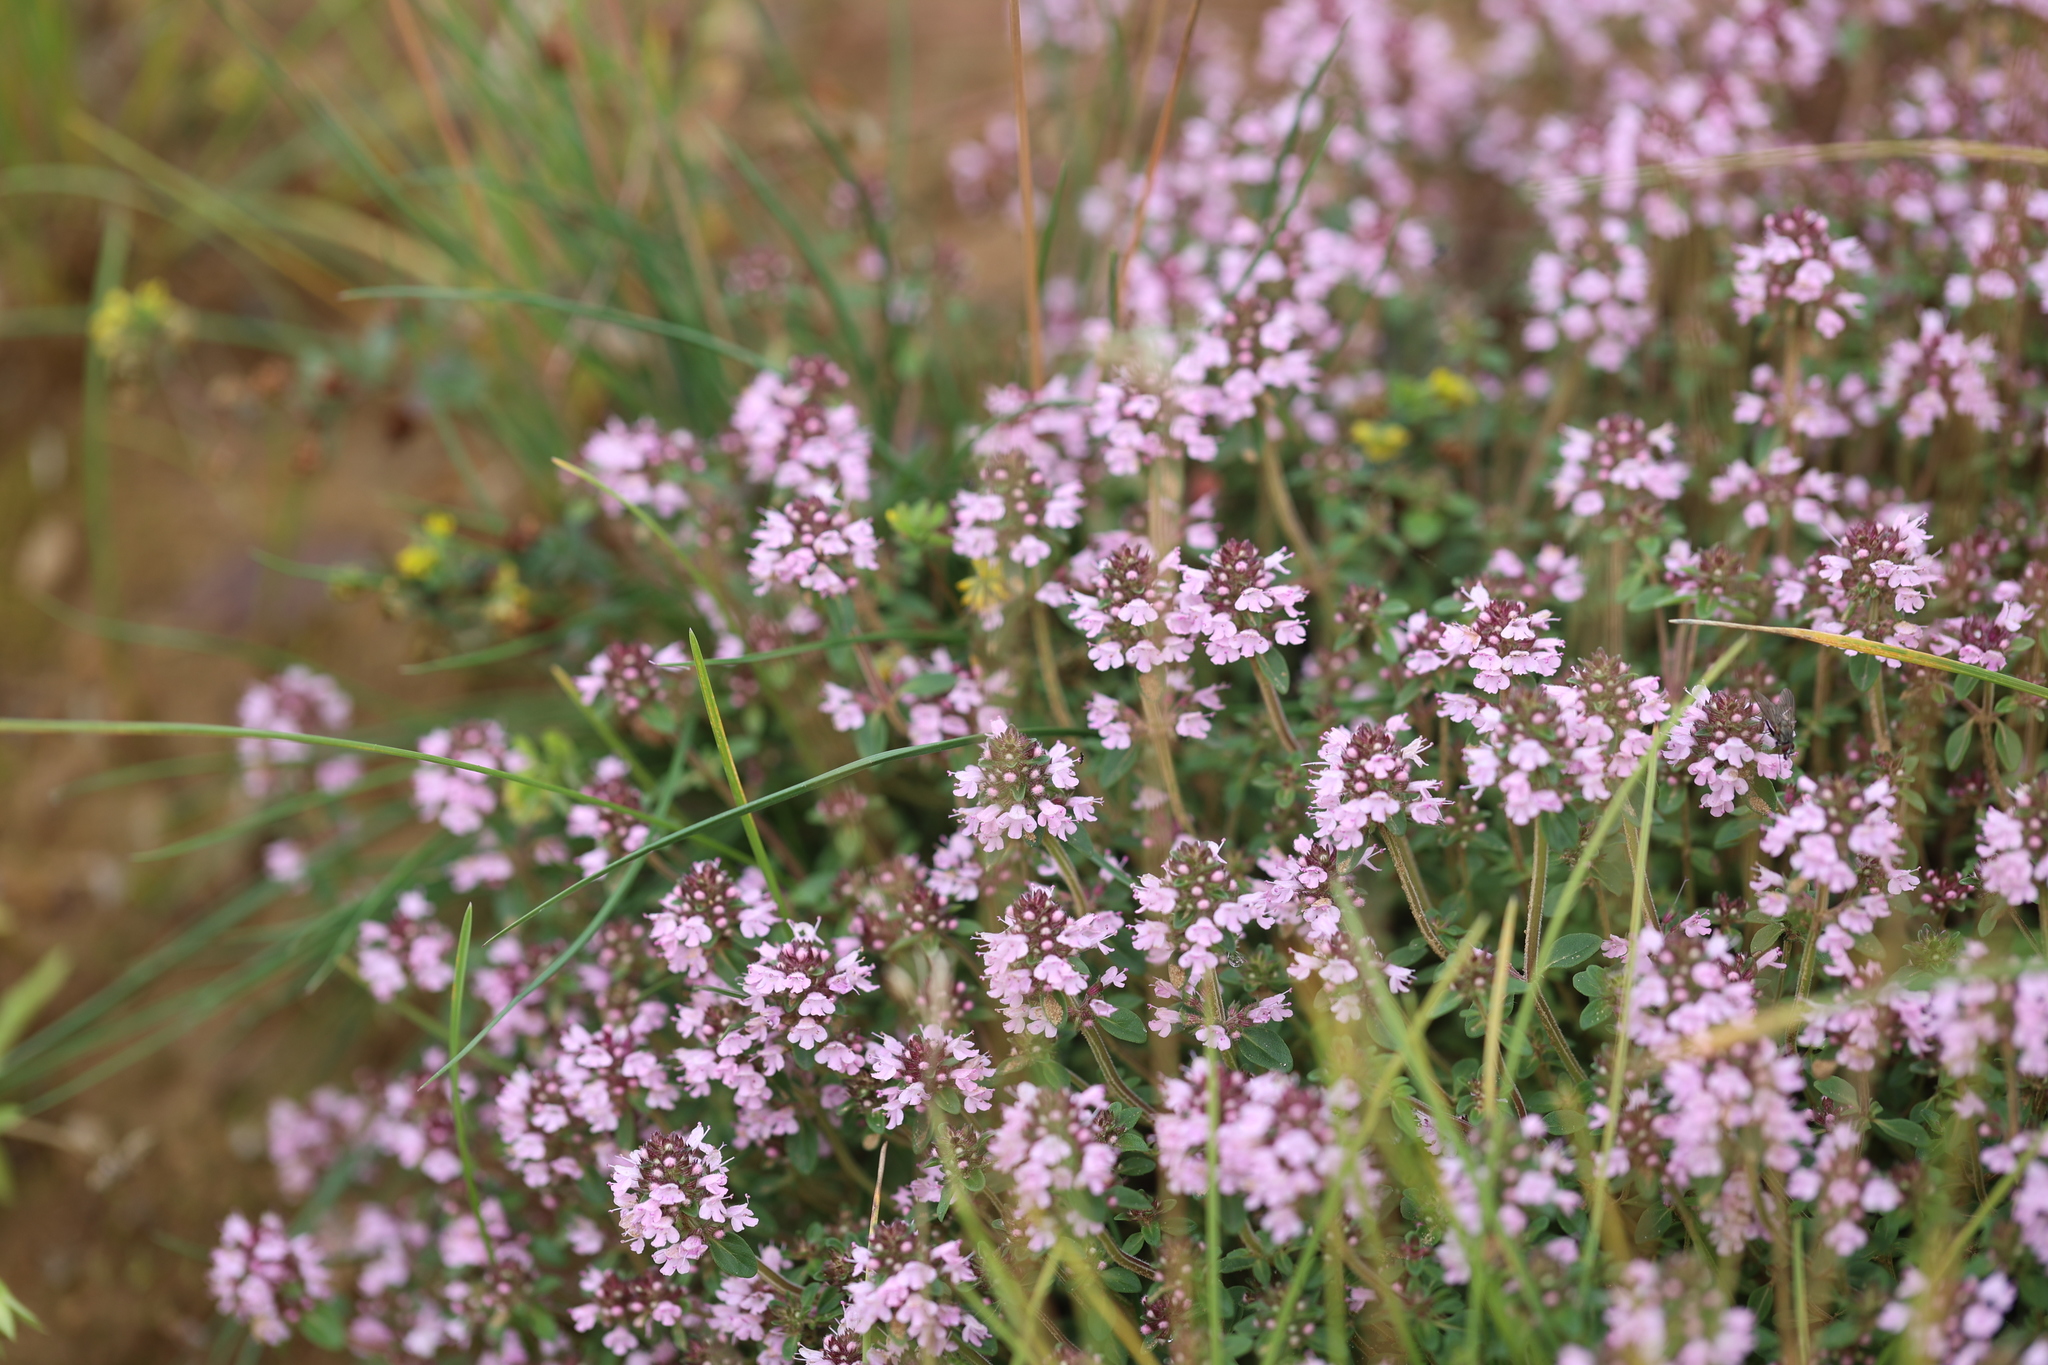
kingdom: Plantae
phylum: Tracheophyta
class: Magnoliopsida
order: Lamiales
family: Lamiaceae
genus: Thymus
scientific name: Thymus pulegioides
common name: Large thyme
